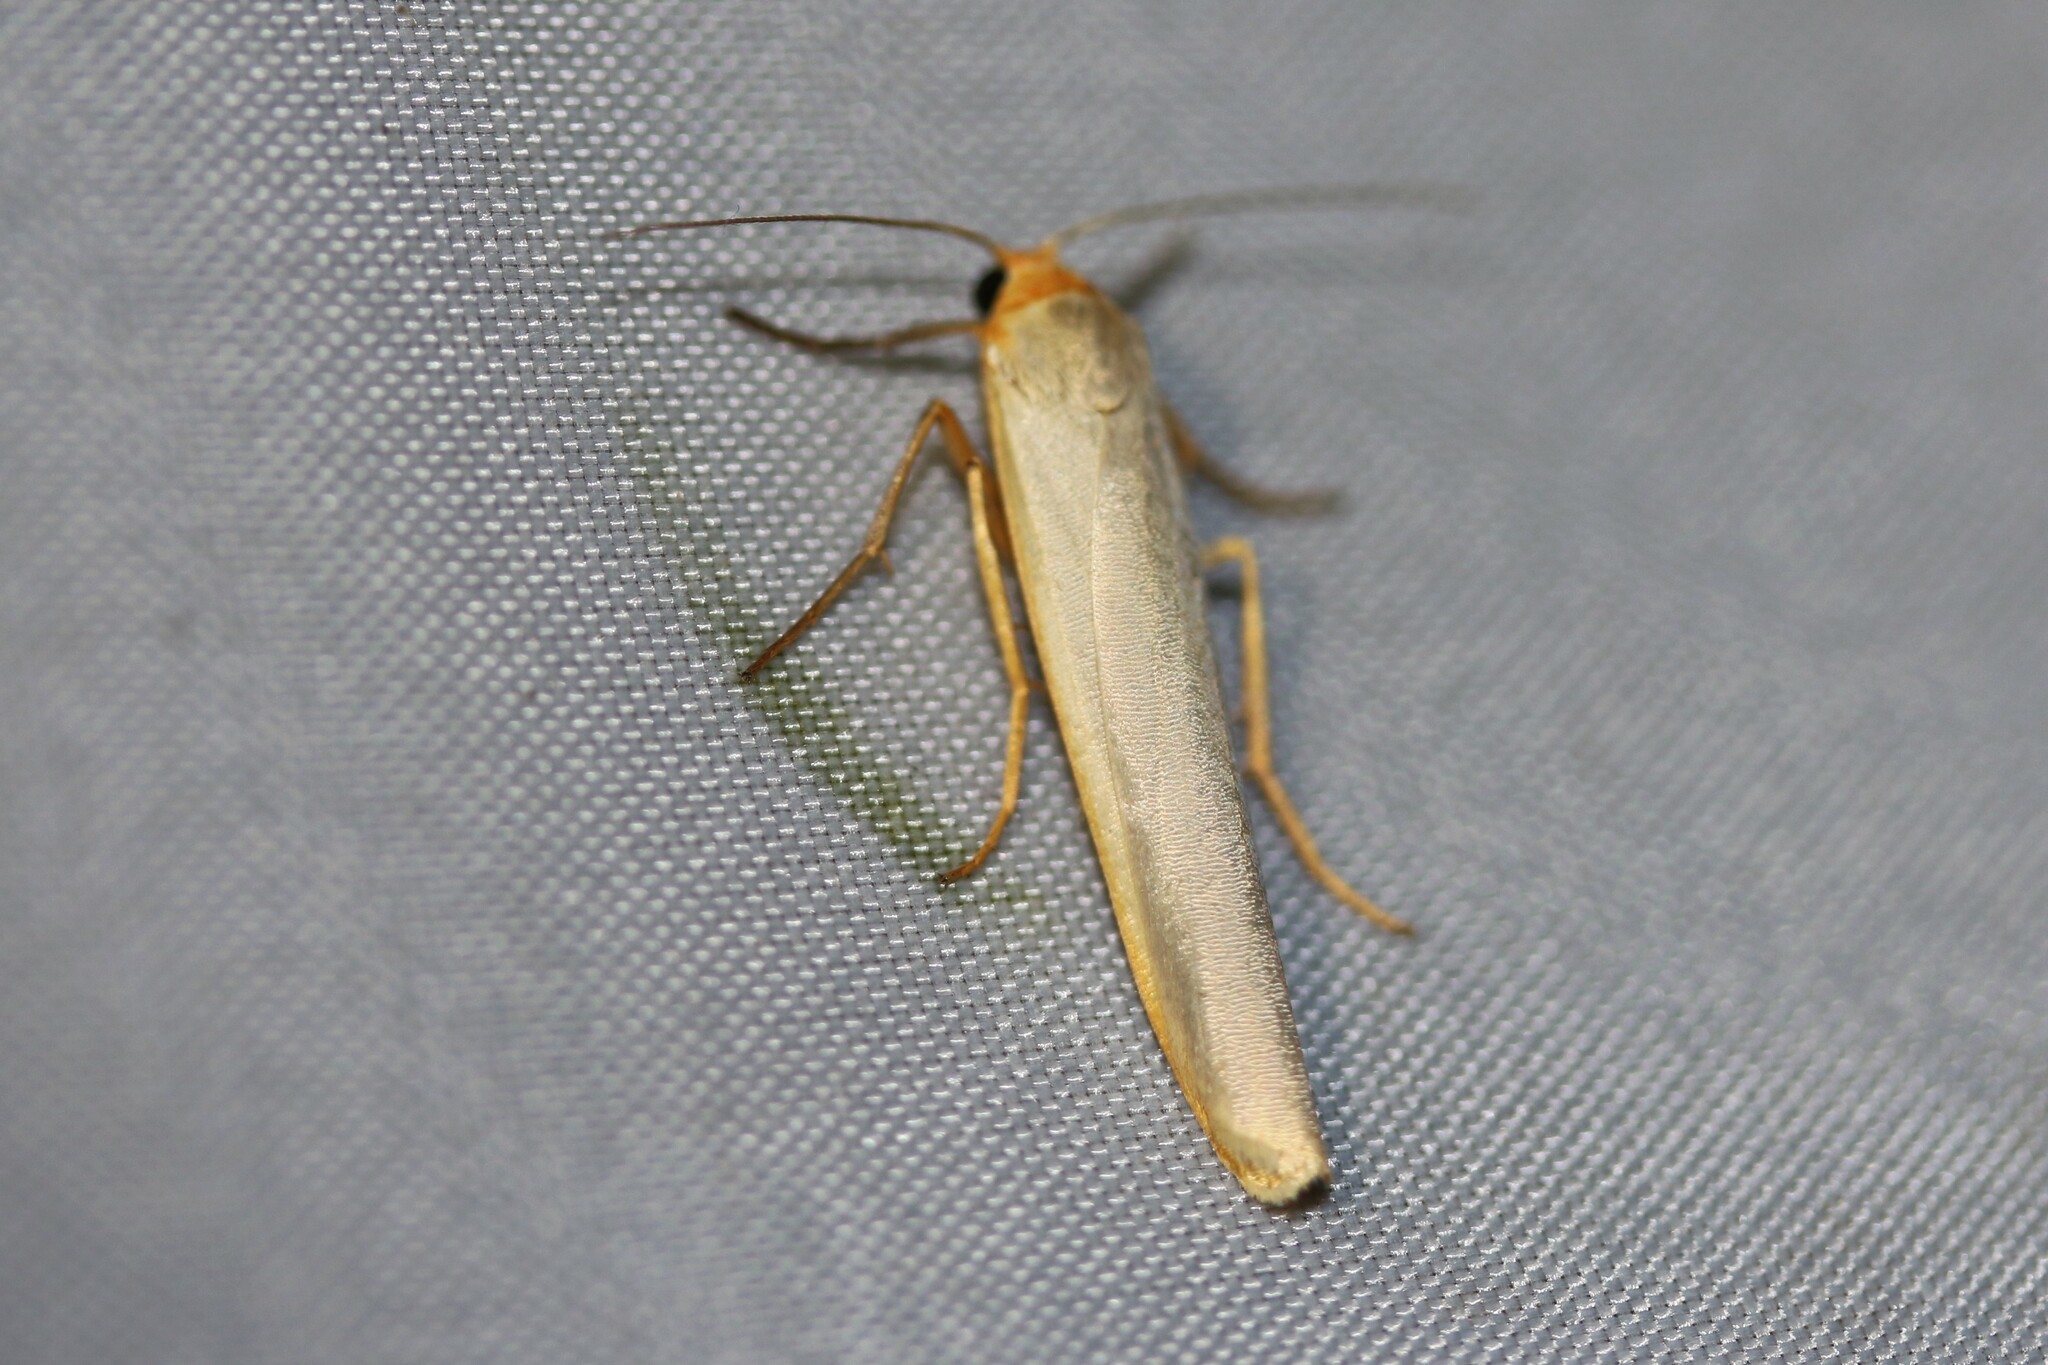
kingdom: Animalia
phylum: Arthropoda
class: Insecta
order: Lepidoptera
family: Erebidae
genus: Manulea
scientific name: Manulea complana
